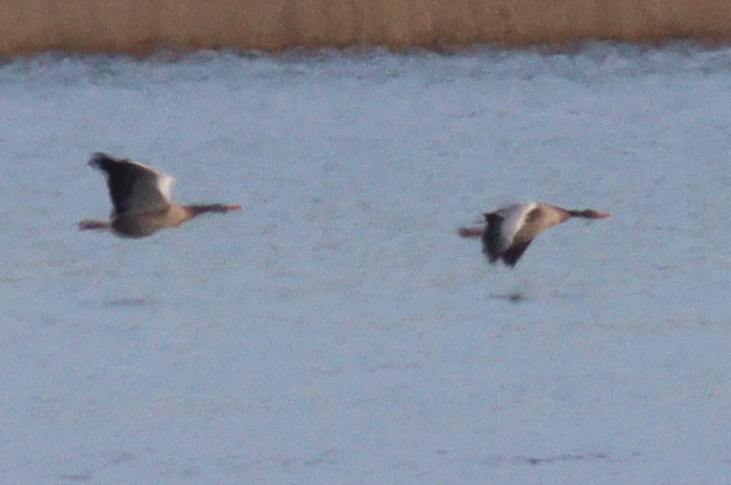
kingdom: Animalia
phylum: Chordata
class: Aves
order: Anseriformes
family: Anatidae
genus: Anser
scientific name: Anser anser
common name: Greylag goose
